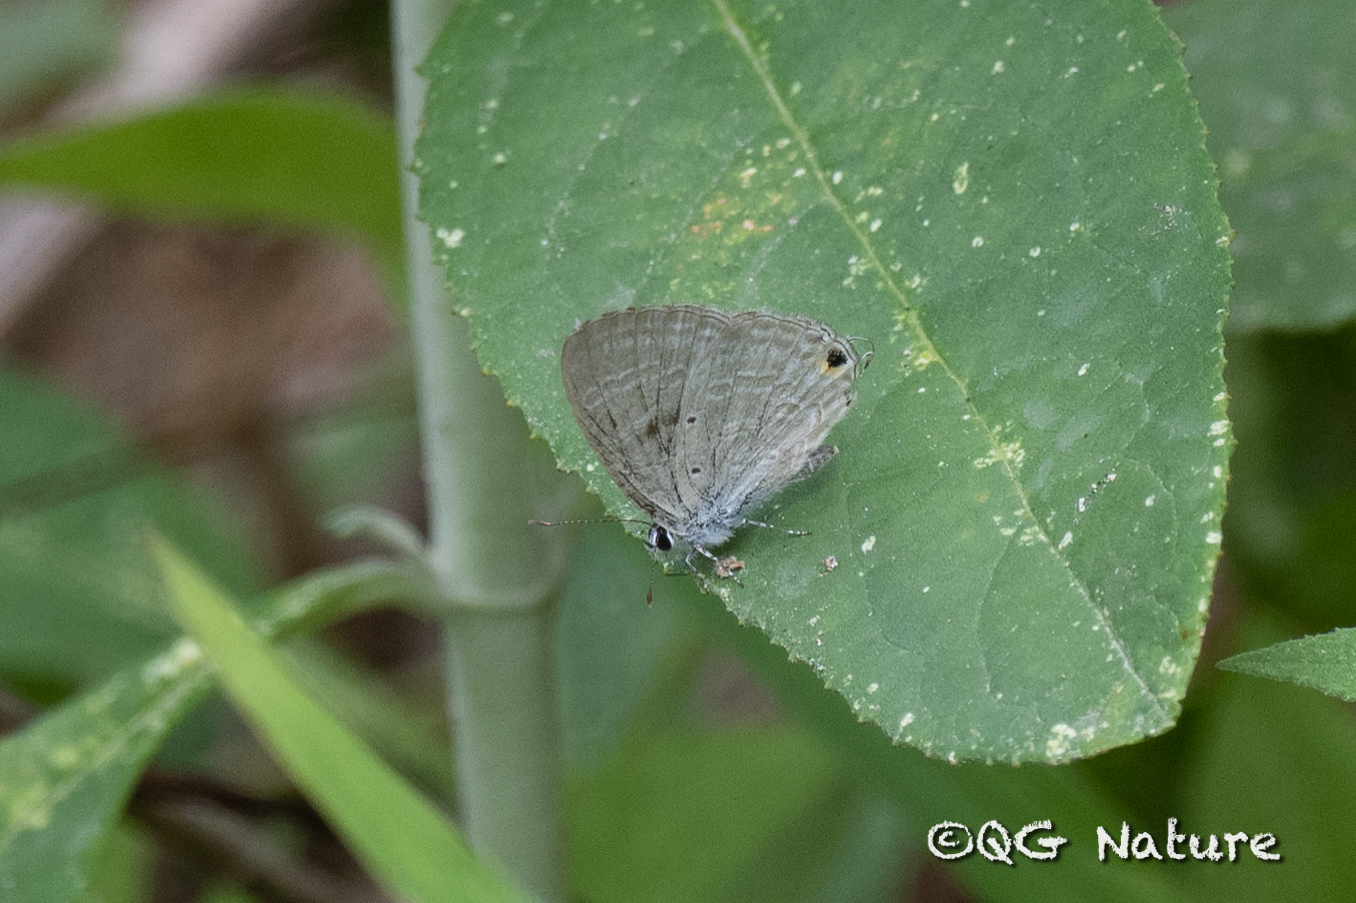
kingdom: Animalia
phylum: Arthropoda
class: Insecta
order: Lepidoptera
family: Lycaenidae
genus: Catochrysops
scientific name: Catochrysops strabo
